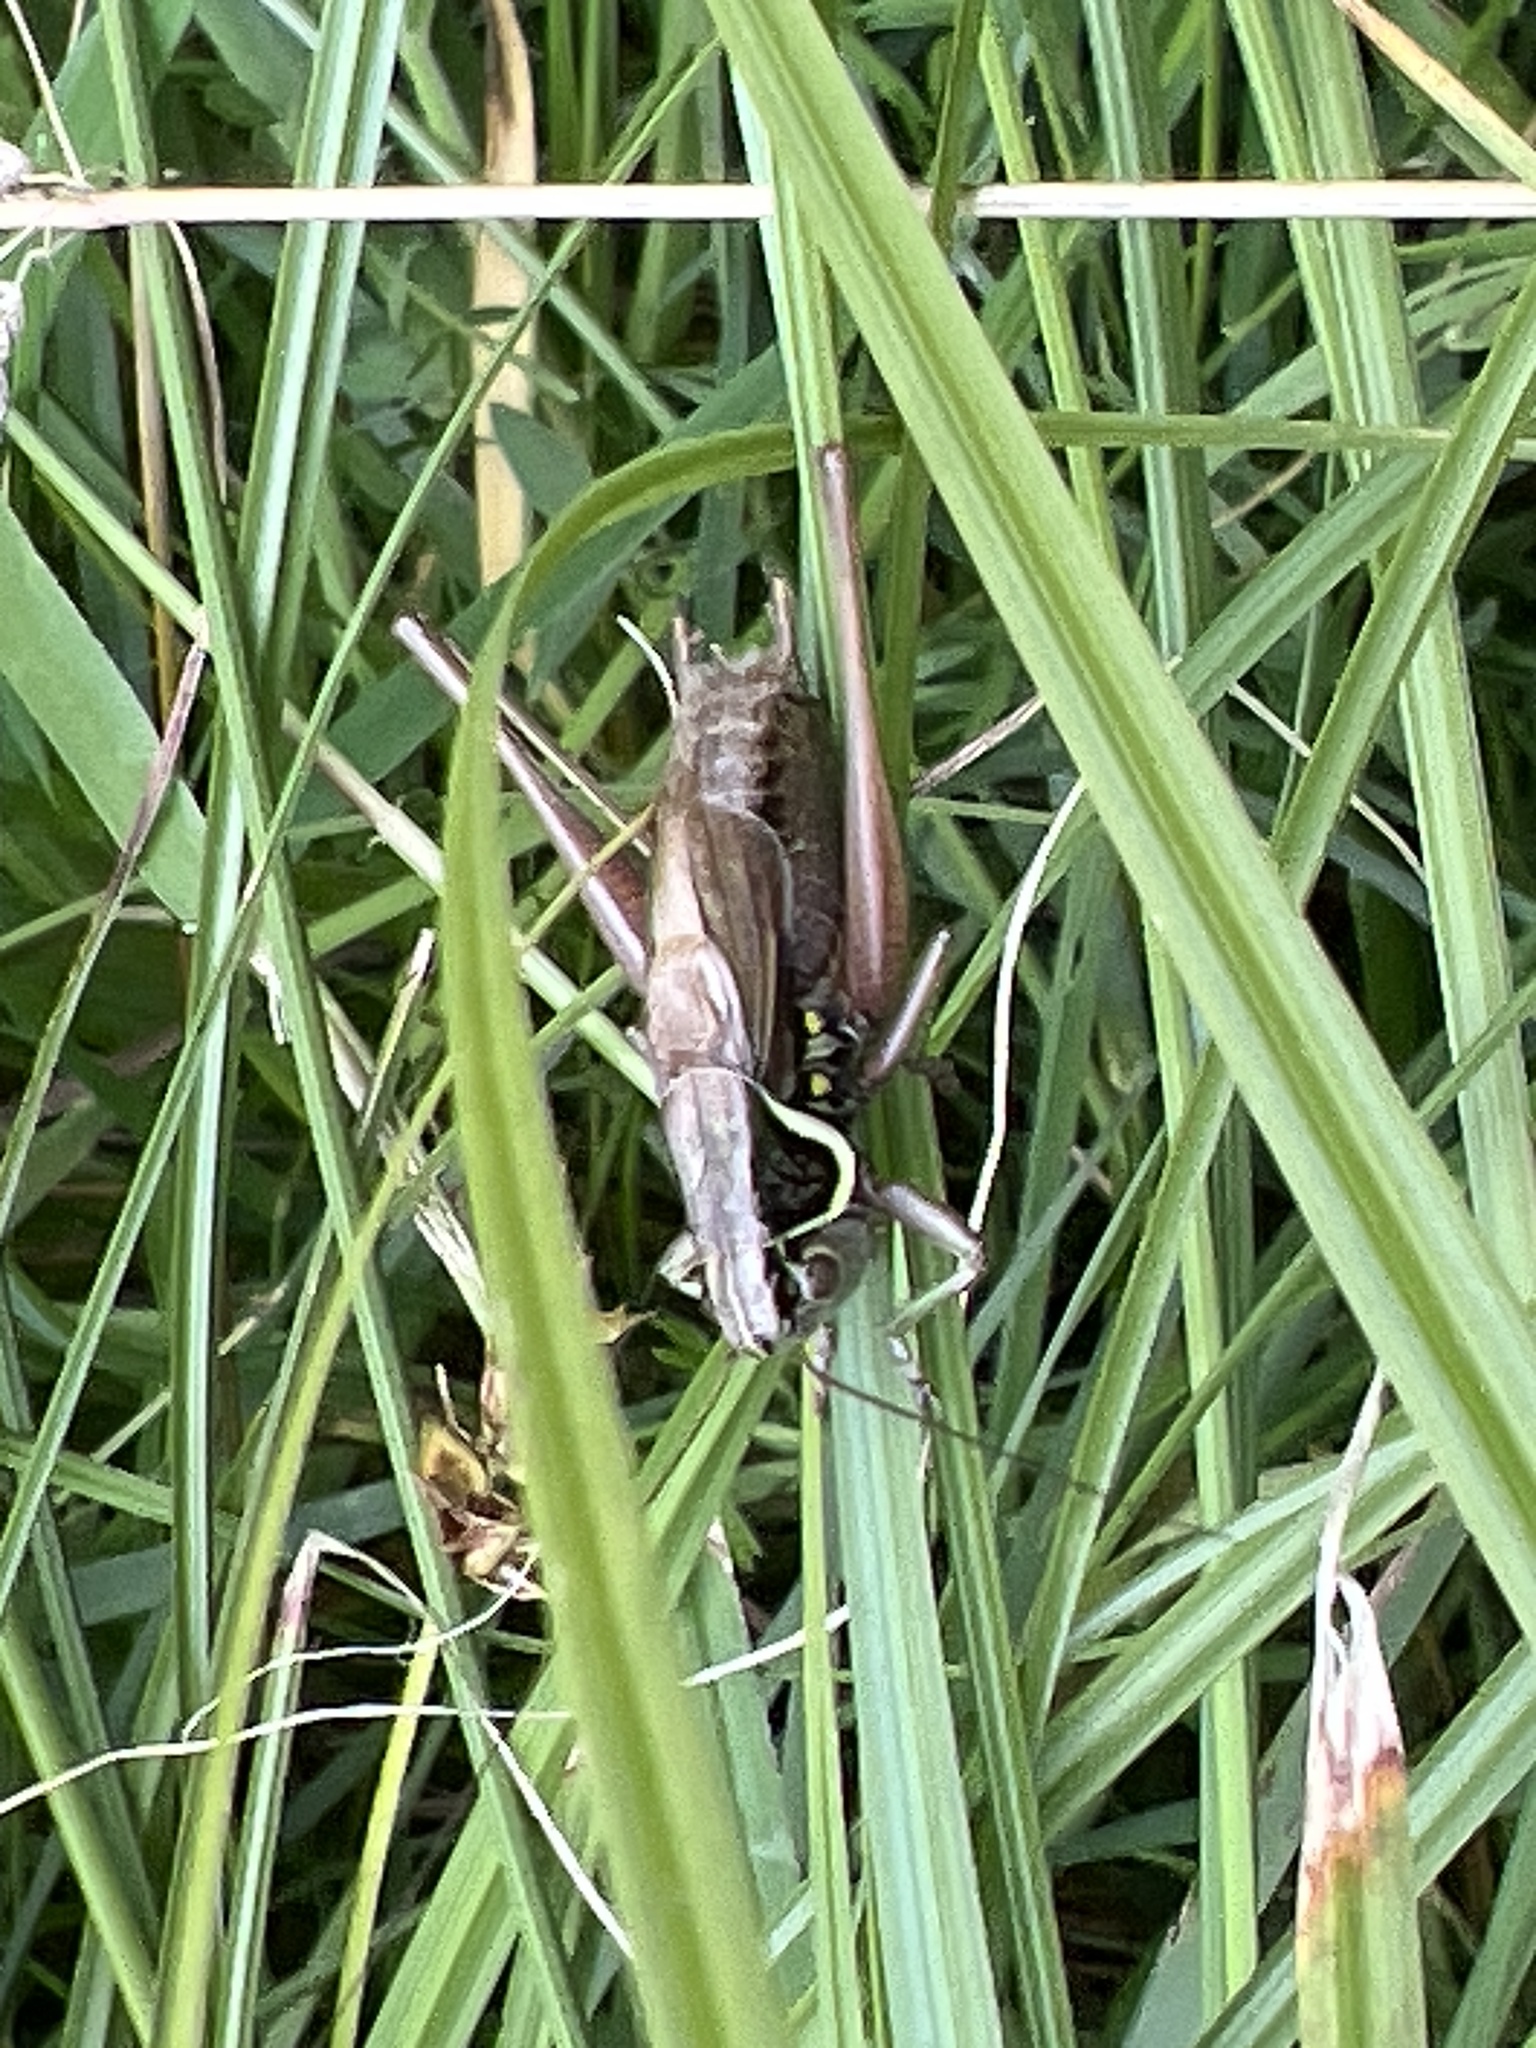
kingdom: Animalia
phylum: Arthropoda
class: Insecta
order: Orthoptera
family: Tettigoniidae
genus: Roeseliana
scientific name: Roeseliana roeselii
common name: Roesel's bush cricket
